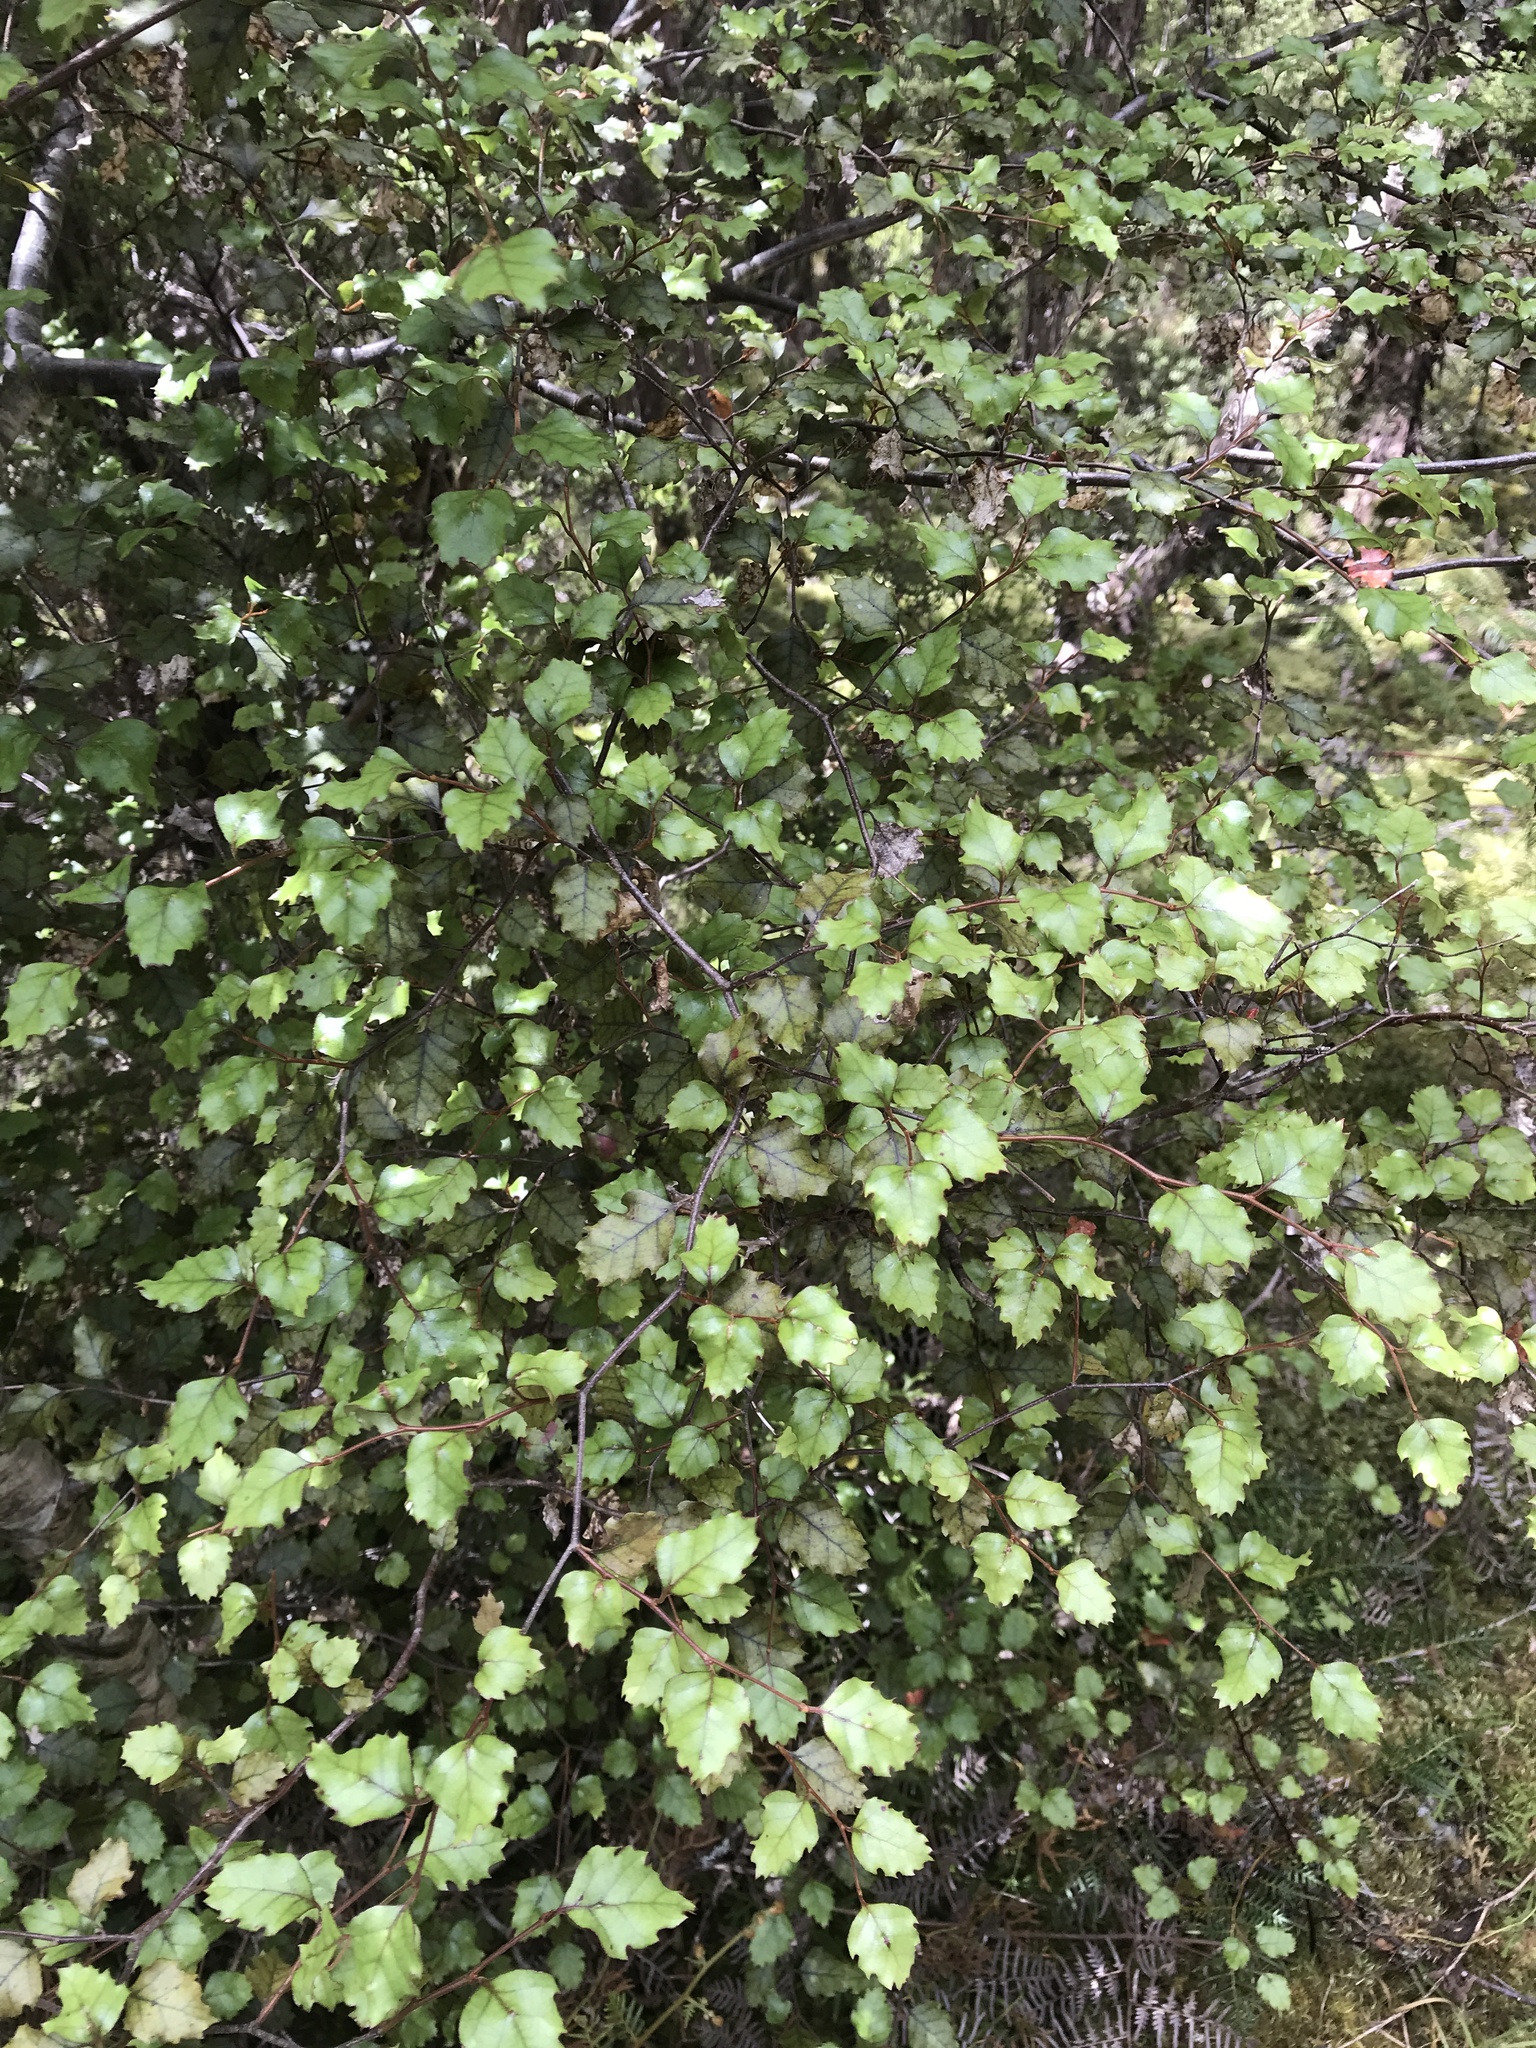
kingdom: Plantae
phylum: Tracheophyta
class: Magnoliopsida
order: Fagales
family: Nothofagaceae
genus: Nothofagus
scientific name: Nothofagus fusca
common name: Red beech
